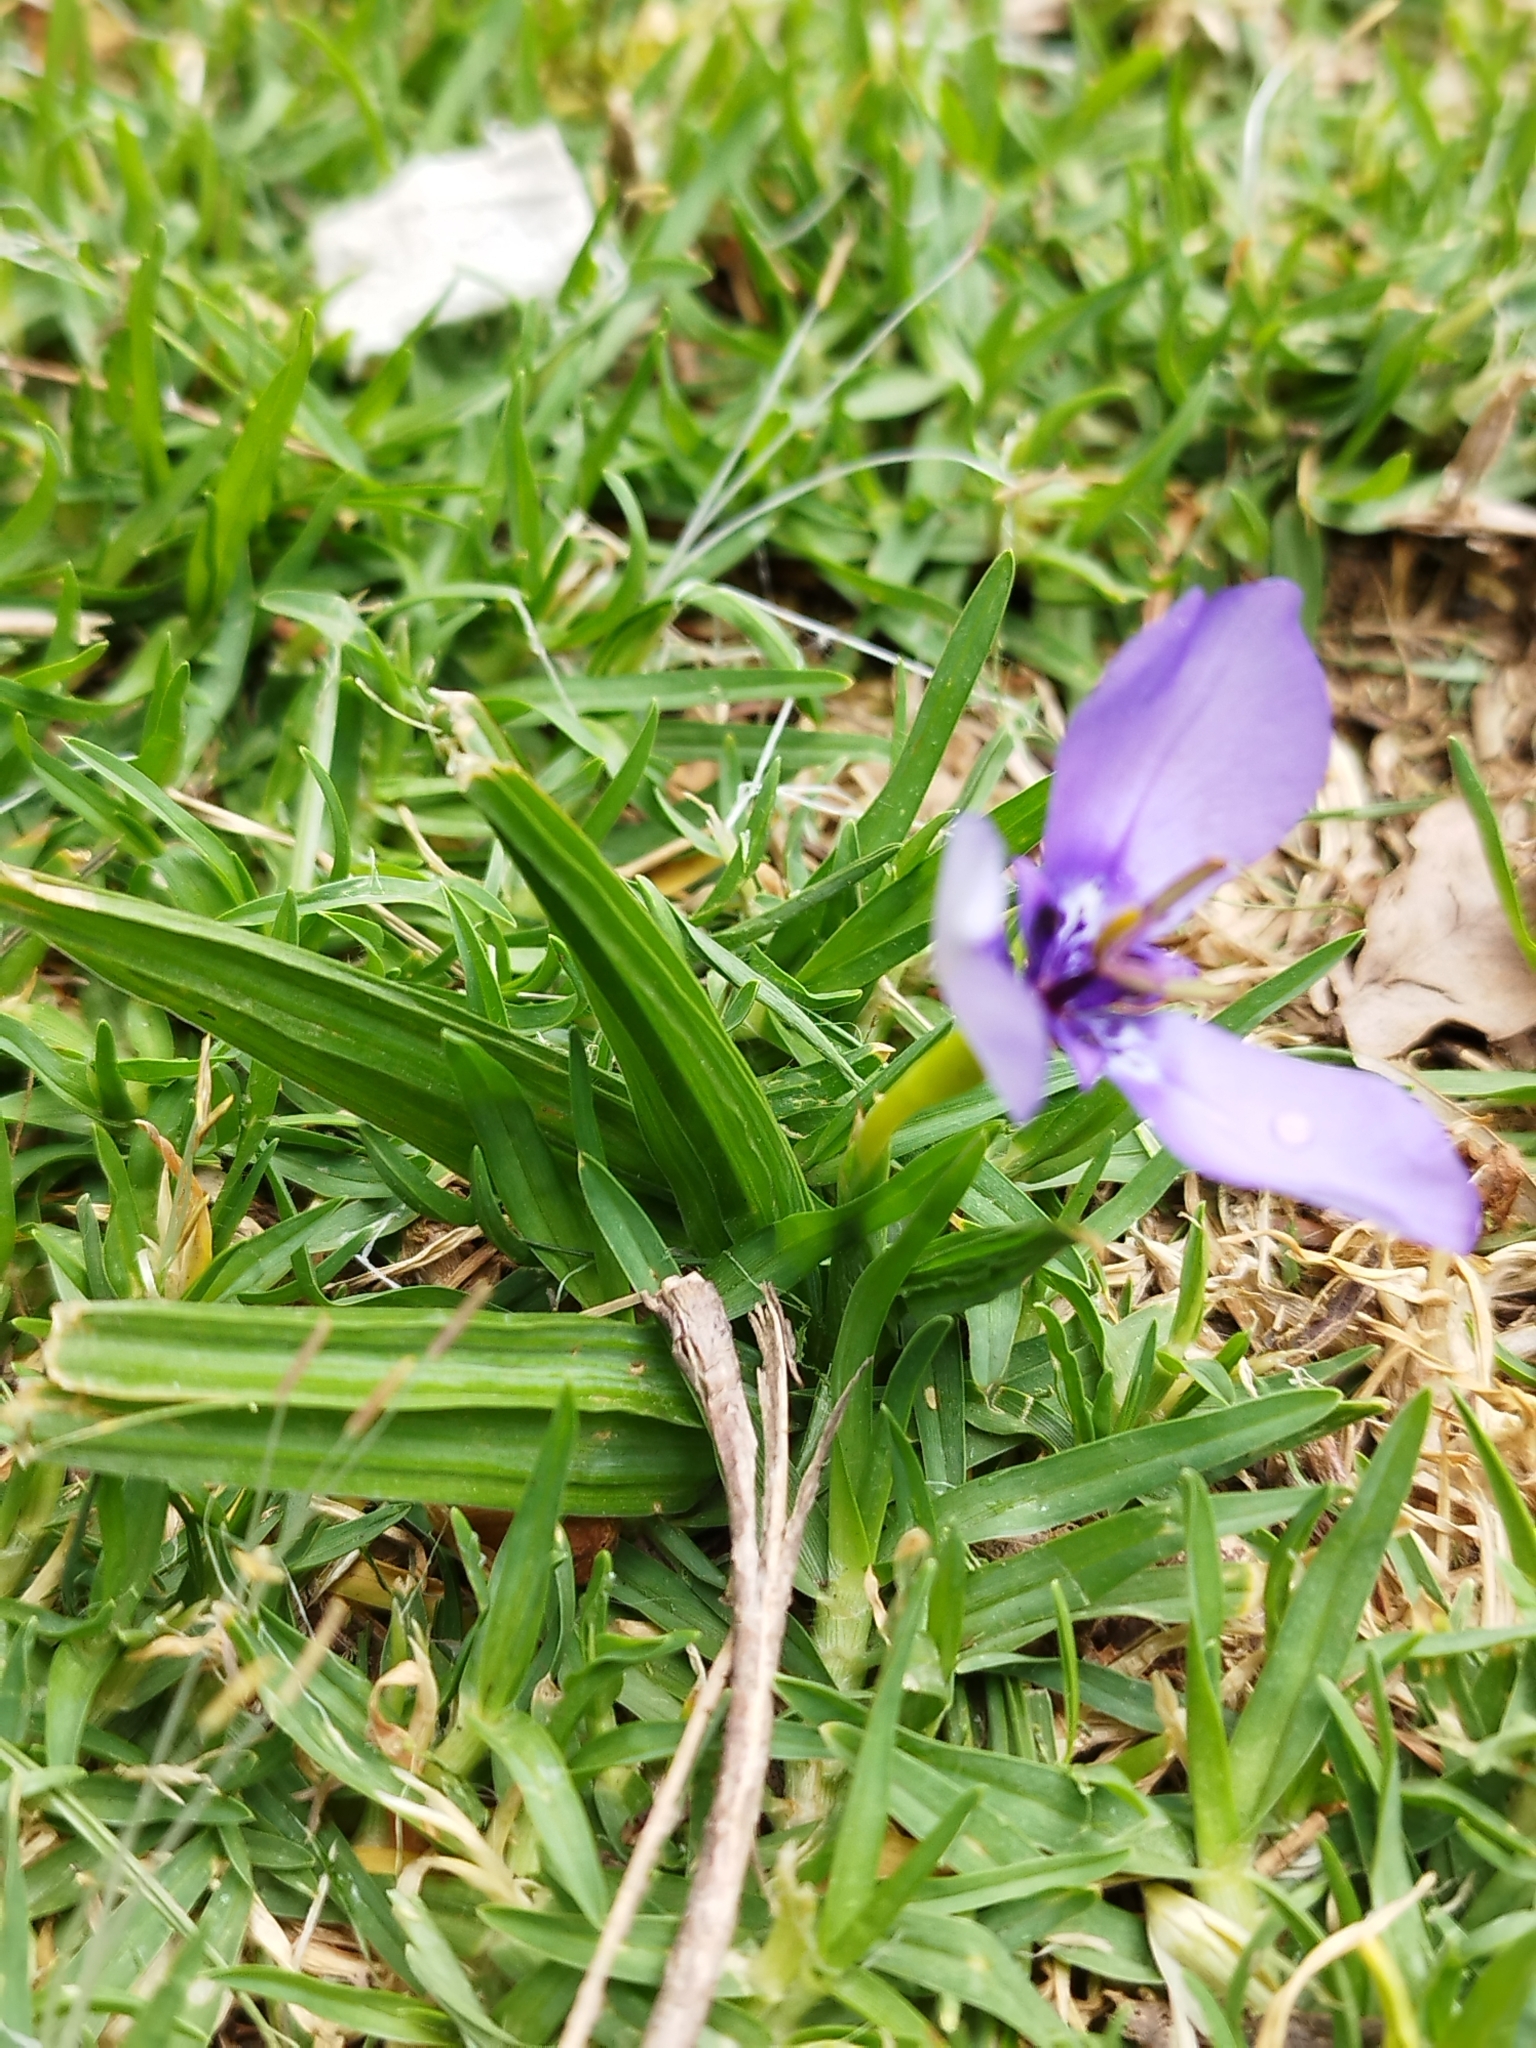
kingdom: Plantae
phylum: Tracheophyta
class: Liliopsida
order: Asparagales
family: Iridaceae
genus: Herbertia
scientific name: Herbertia lahue
